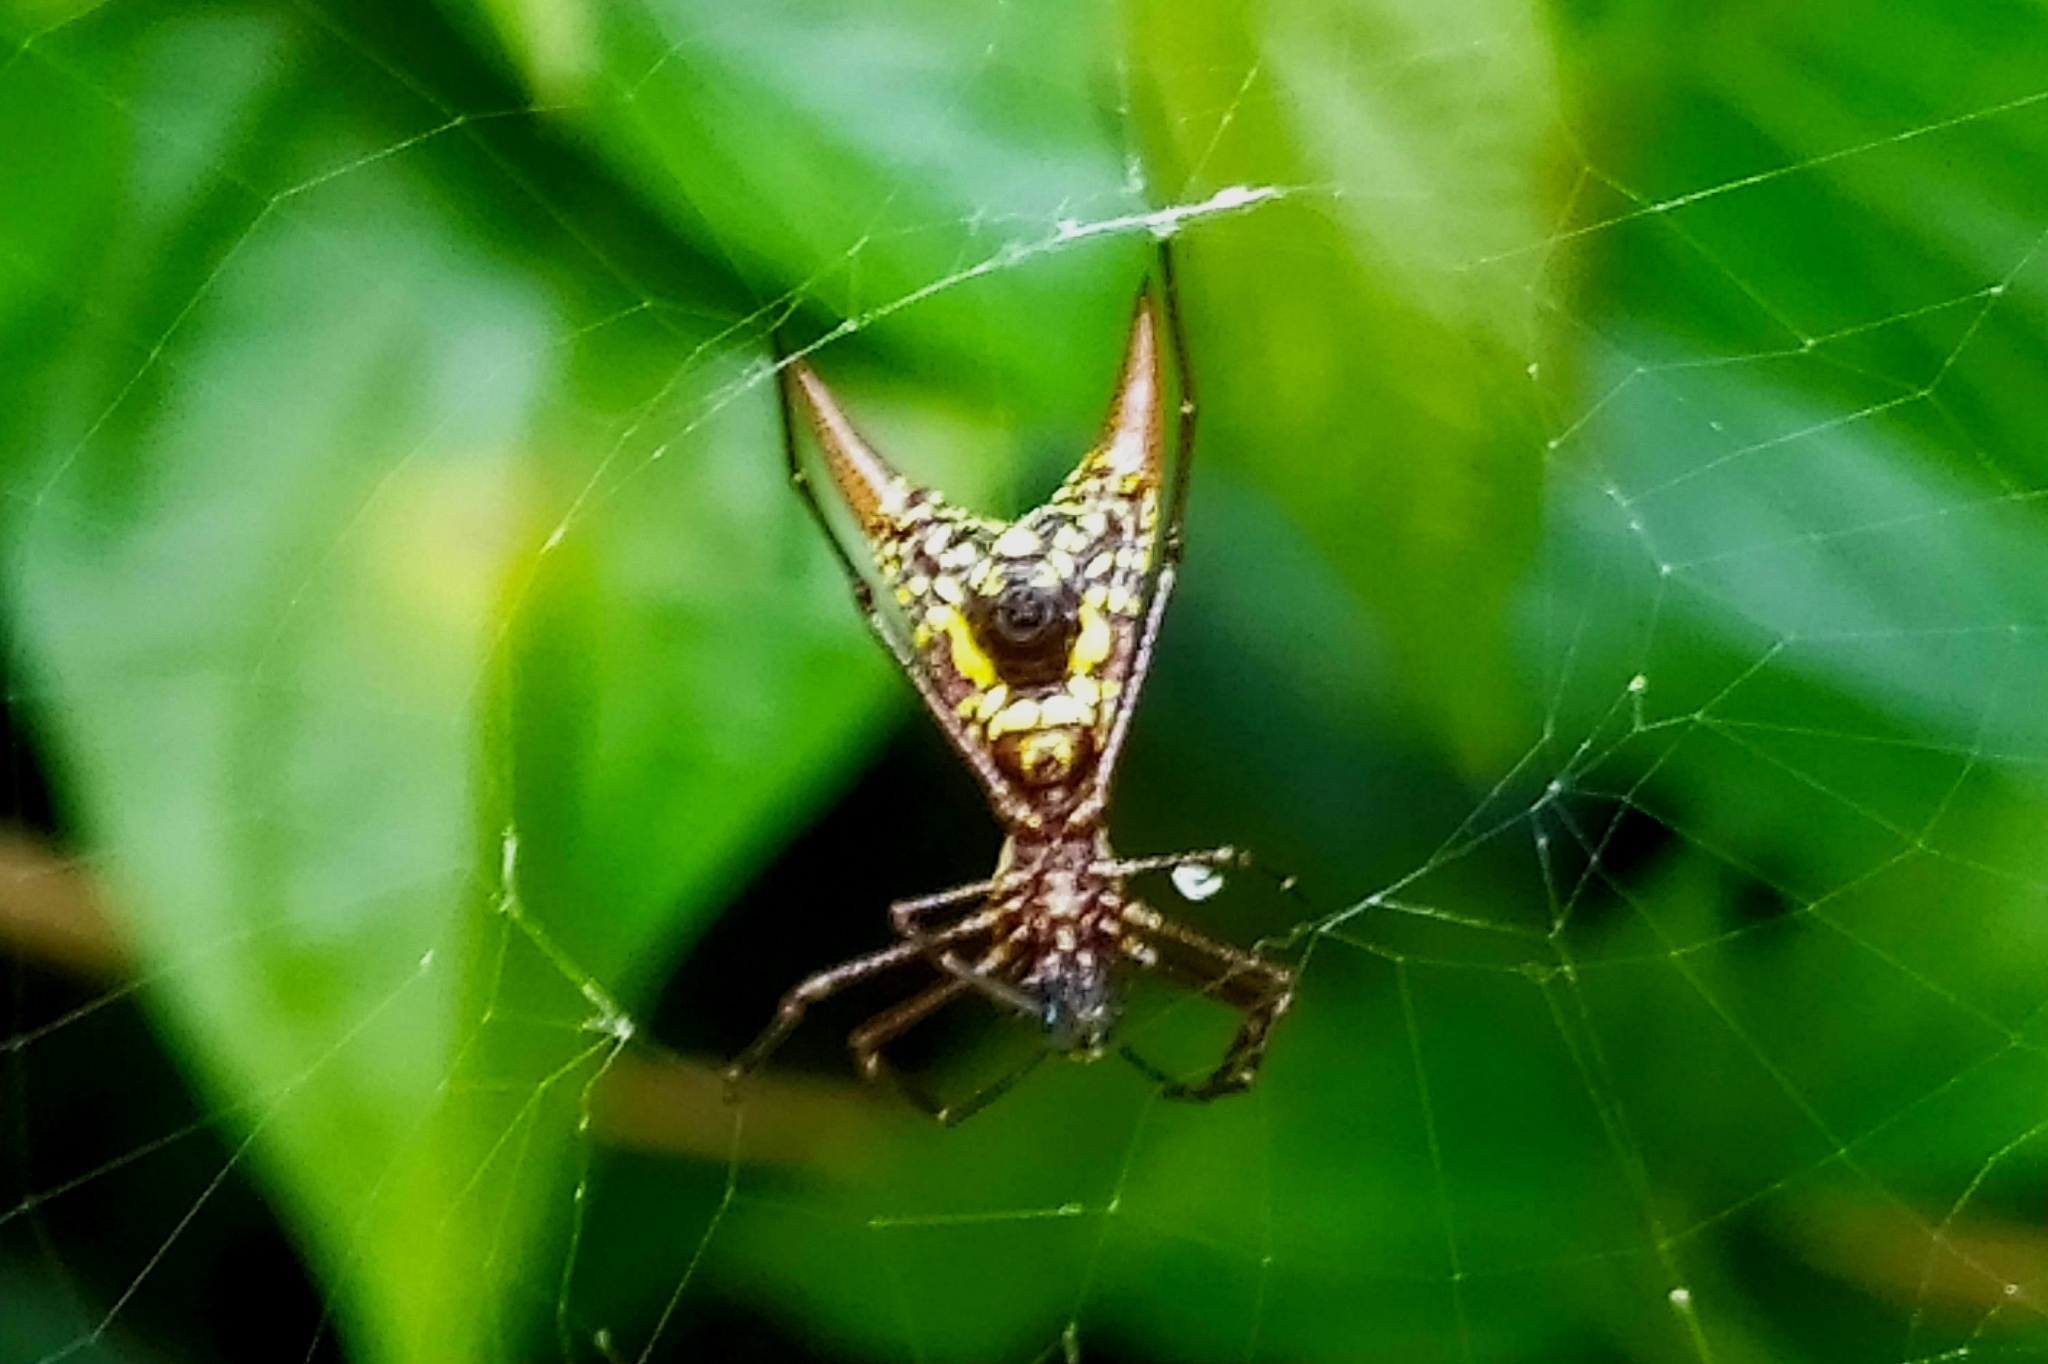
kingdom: Animalia
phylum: Arthropoda
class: Arachnida
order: Araneae
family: Araneidae
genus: Micrathena
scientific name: Micrathena spinosa
